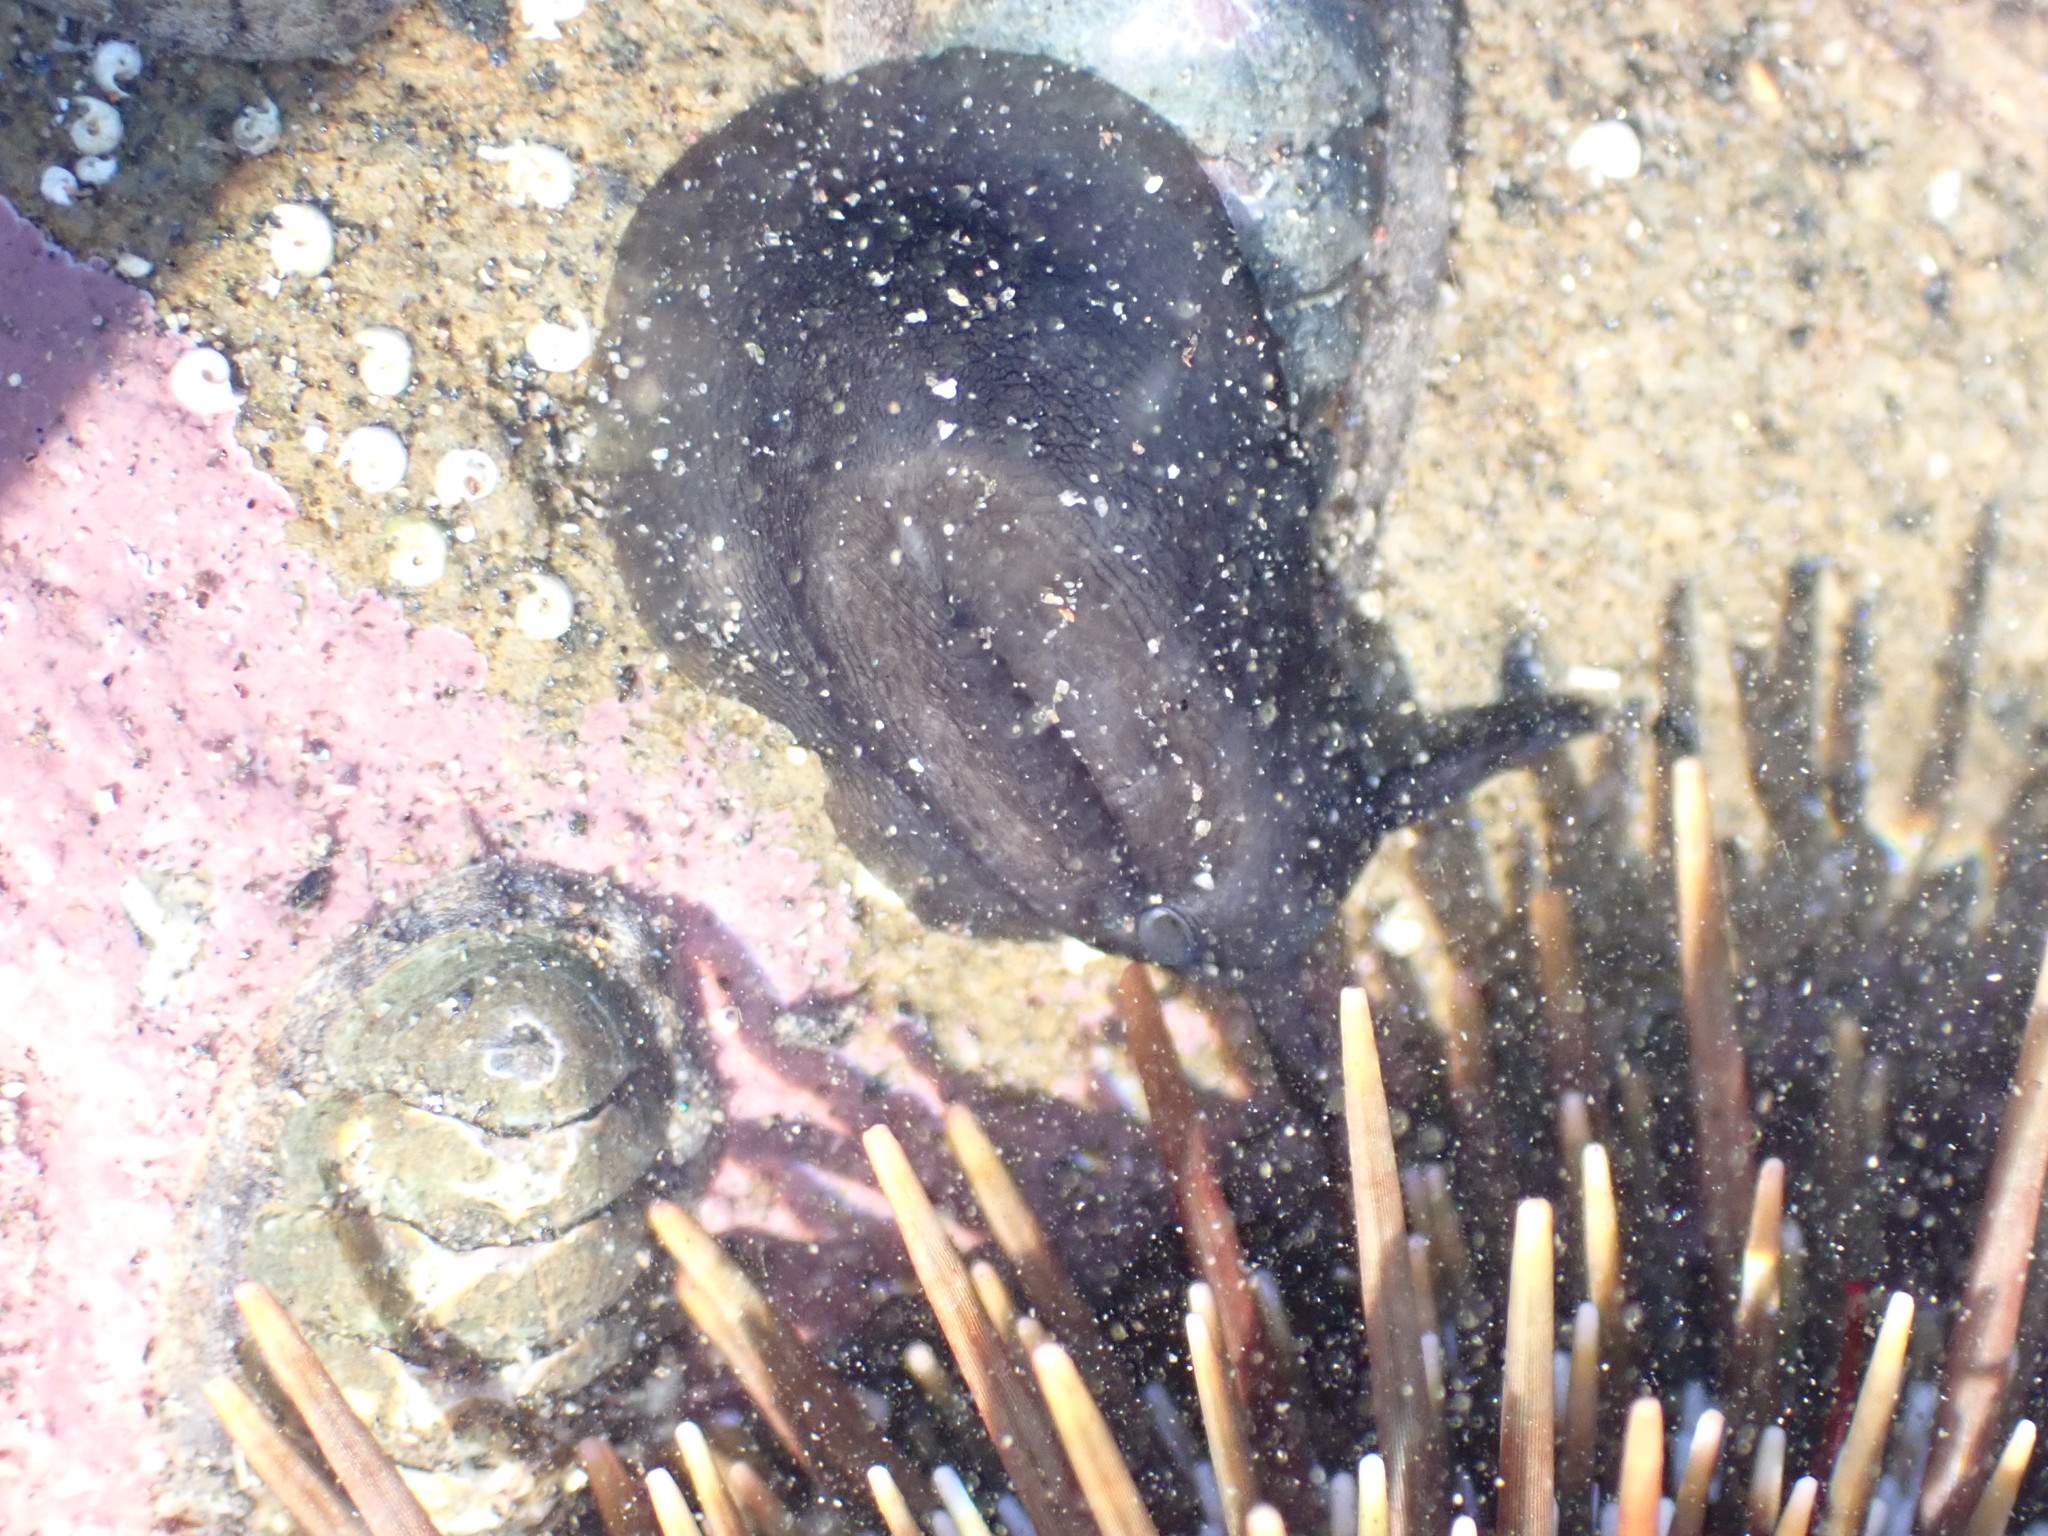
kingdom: Animalia
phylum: Mollusca
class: Gastropoda
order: Lepetellida
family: Fissurellidae
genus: Scutus
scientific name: Scutus breviculus
